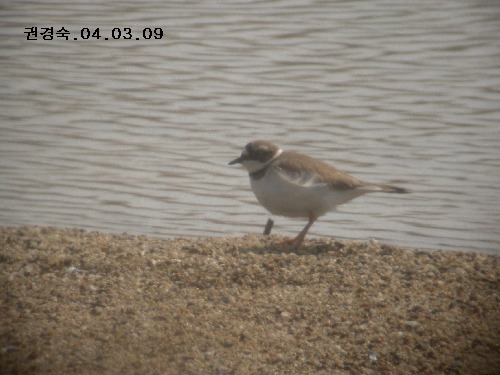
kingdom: Animalia
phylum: Chordata
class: Aves
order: Charadriiformes
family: Charadriidae
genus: Charadrius
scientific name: Charadrius dubius
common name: Little ringed plover
